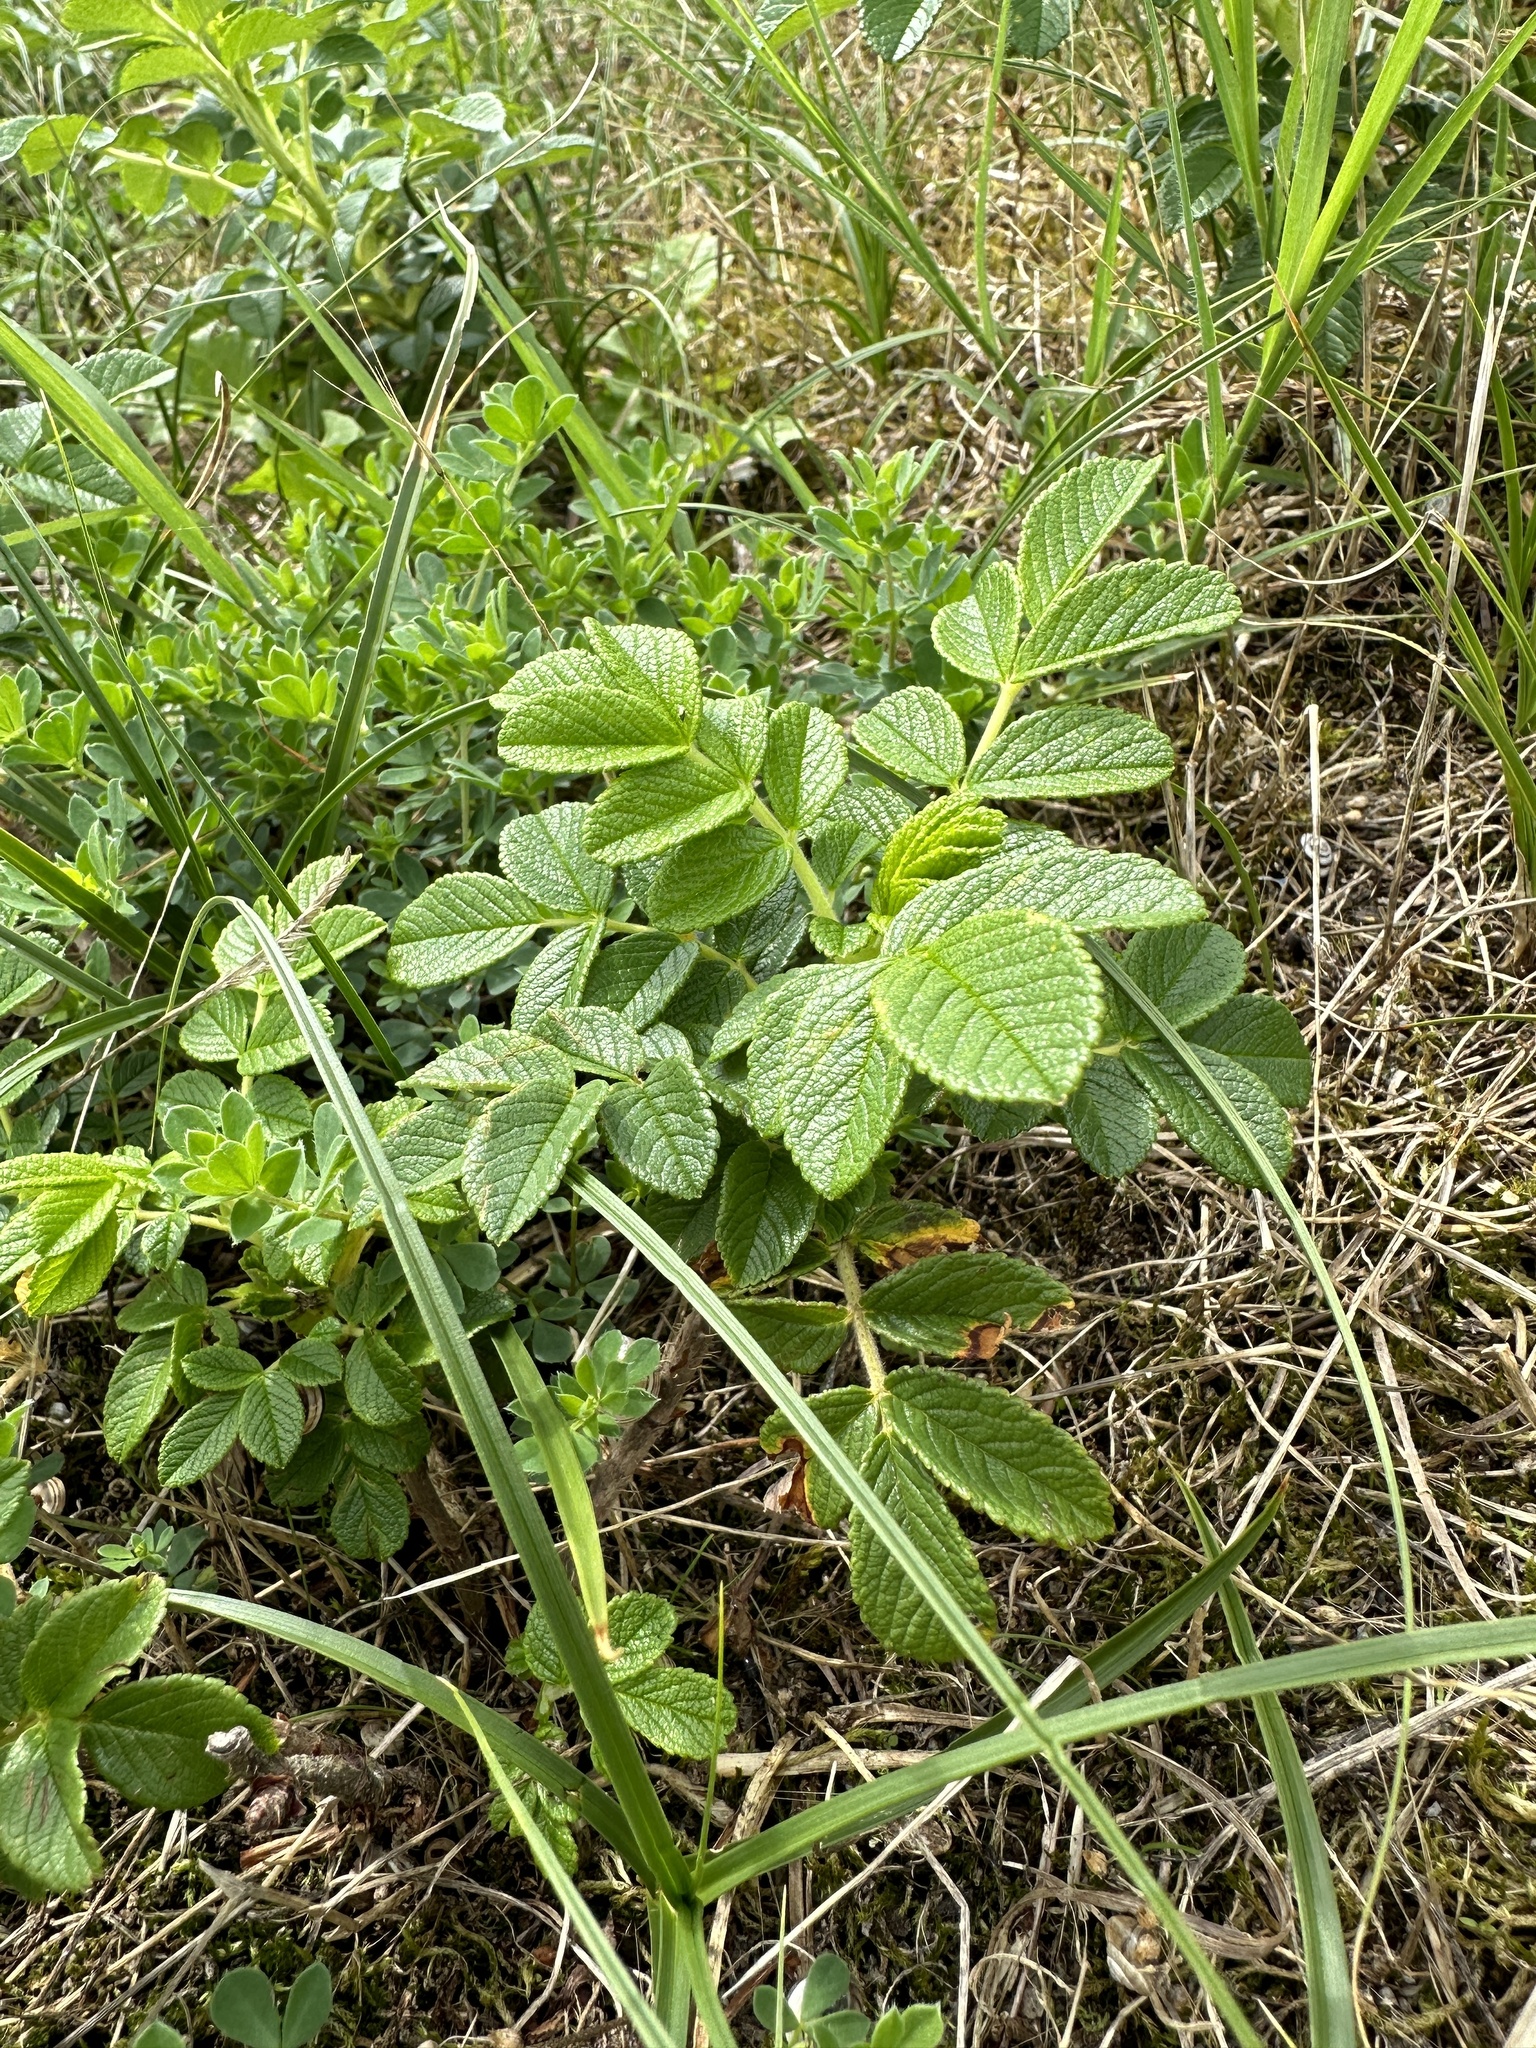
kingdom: Plantae
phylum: Tracheophyta
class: Magnoliopsida
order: Rosales
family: Rosaceae
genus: Rosa
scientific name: Rosa rugosa
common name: Japanese rose
